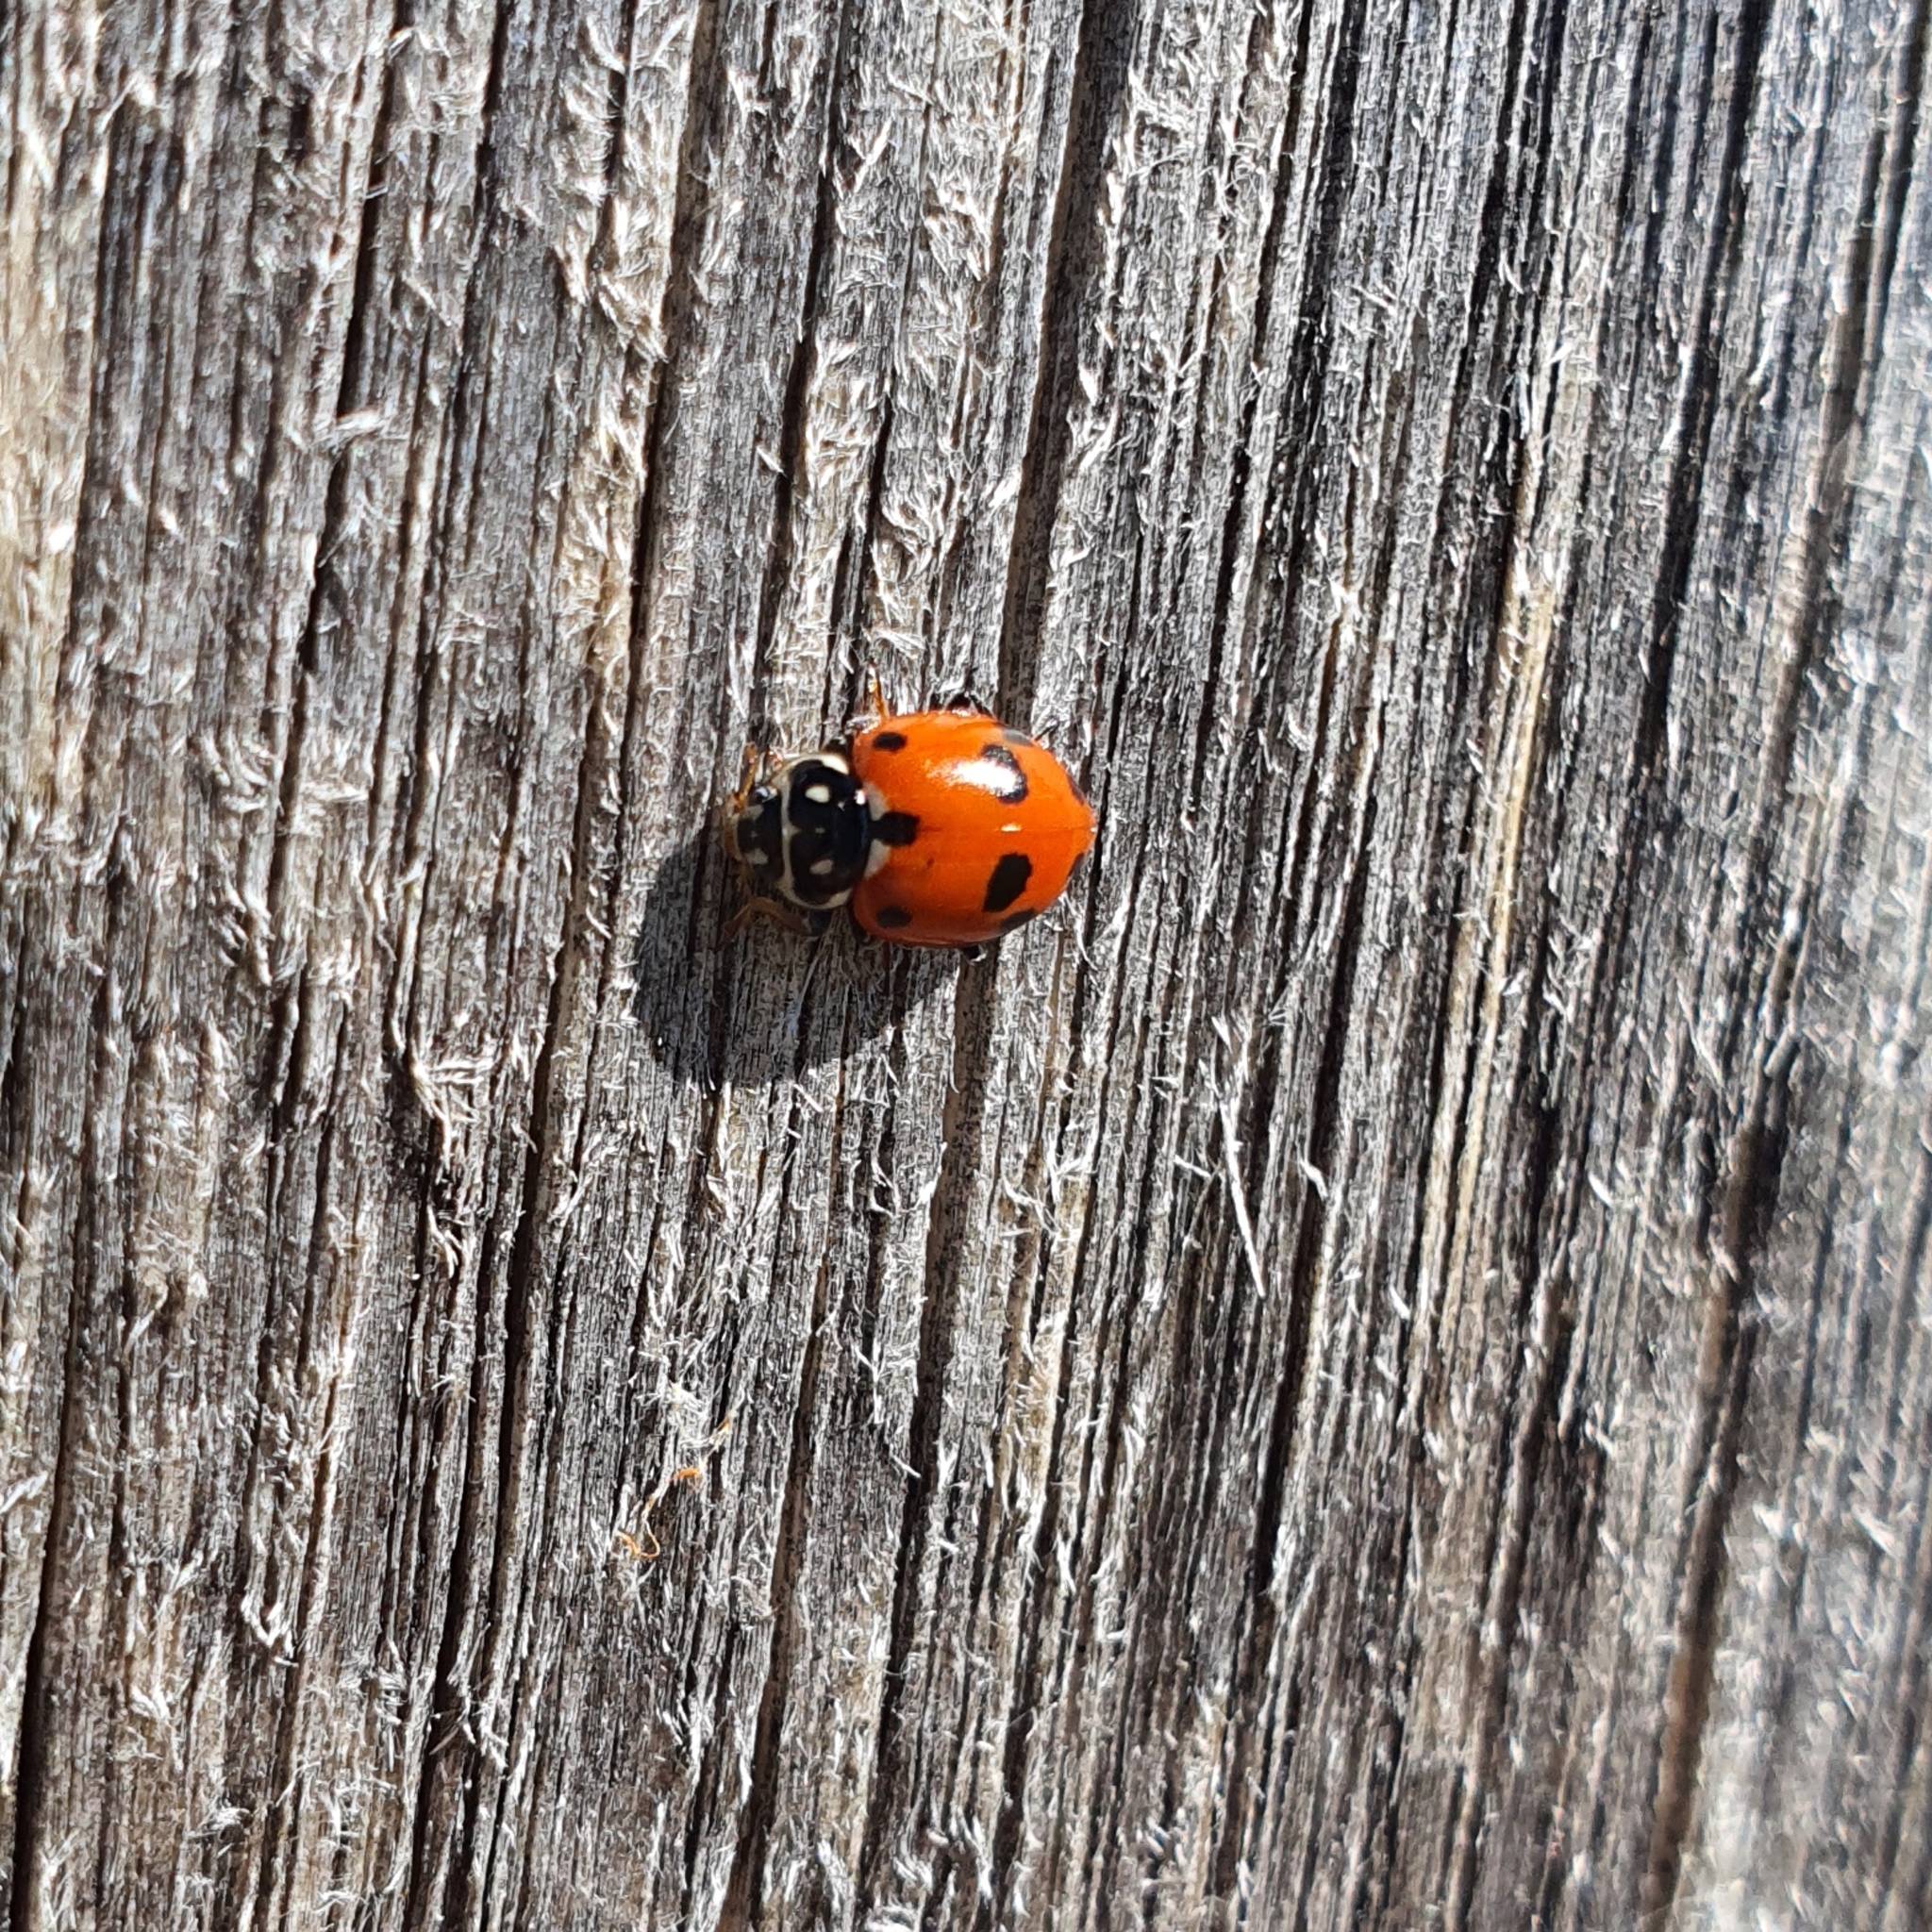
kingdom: Animalia
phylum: Arthropoda
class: Insecta
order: Coleoptera
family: Coccinellidae
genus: Hippodamia
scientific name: Hippodamia variegata
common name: Ladybird beetle
